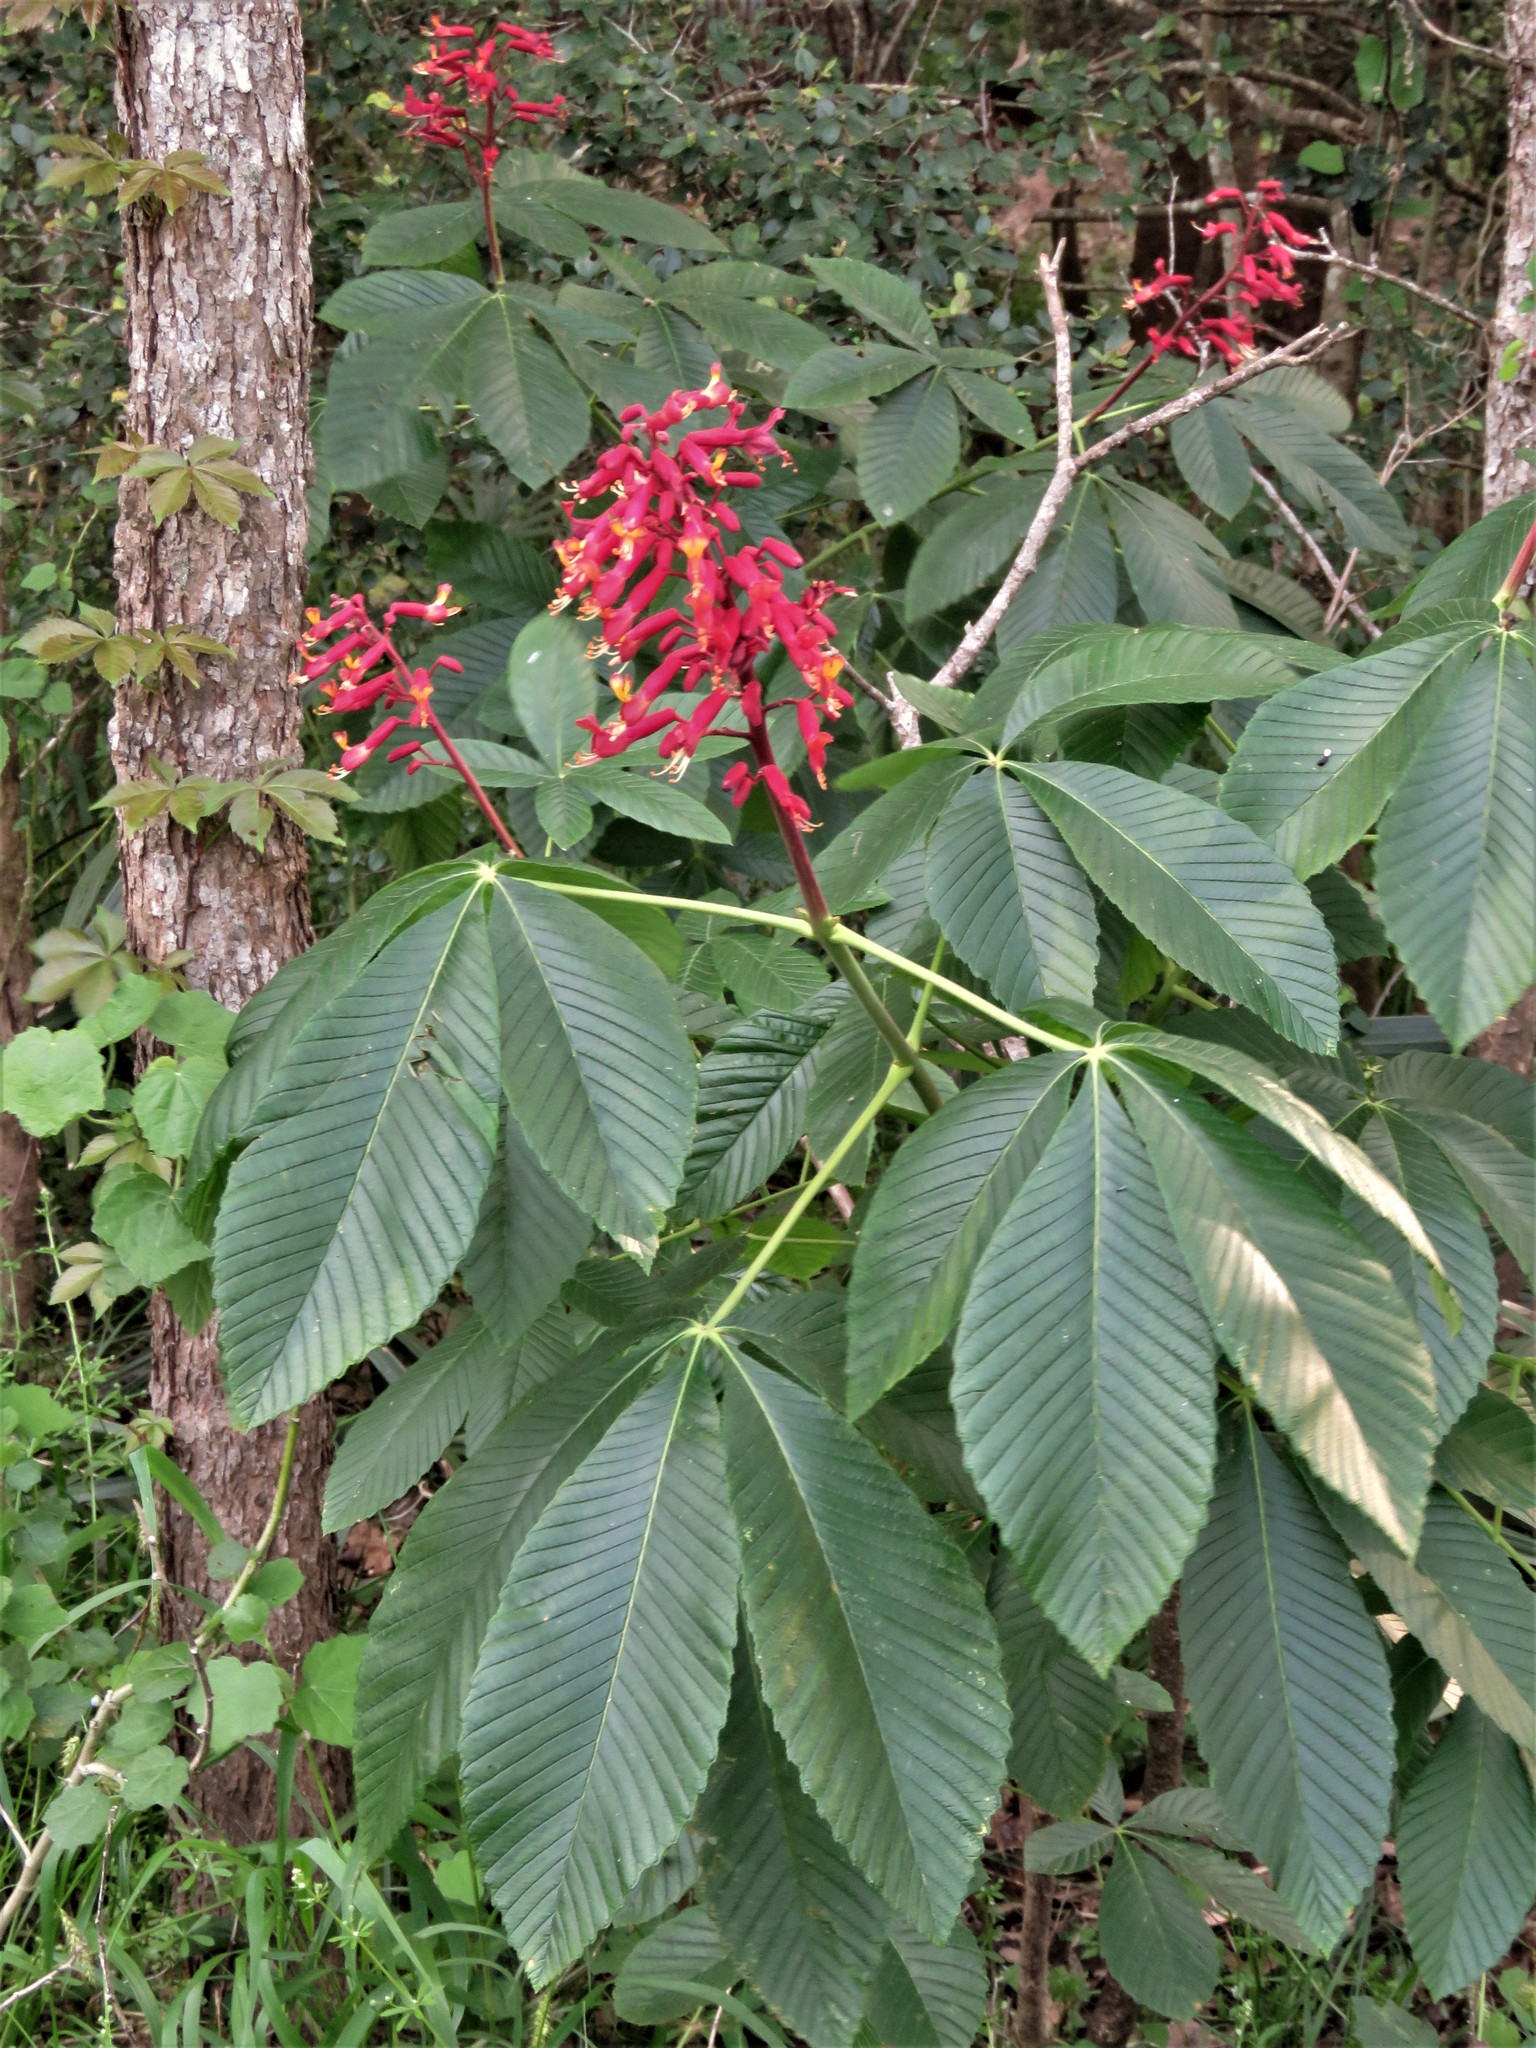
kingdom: Plantae
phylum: Tracheophyta
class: Magnoliopsida
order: Sapindales
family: Sapindaceae
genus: Aesculus
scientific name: Aesculus pavia
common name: Red buckeye
